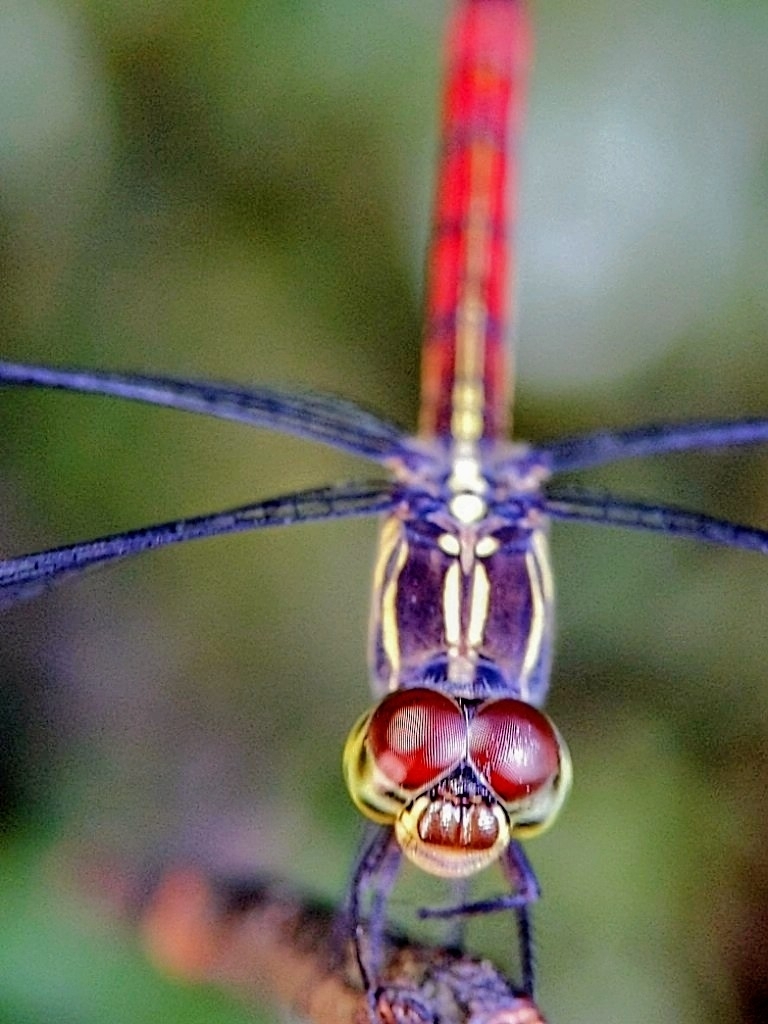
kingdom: Animalia
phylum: Arthropoda
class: Insecta
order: Odonata
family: Libellulidae
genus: Lathrecista
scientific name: Lathrecista asiatica
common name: Scarlet grenadier
